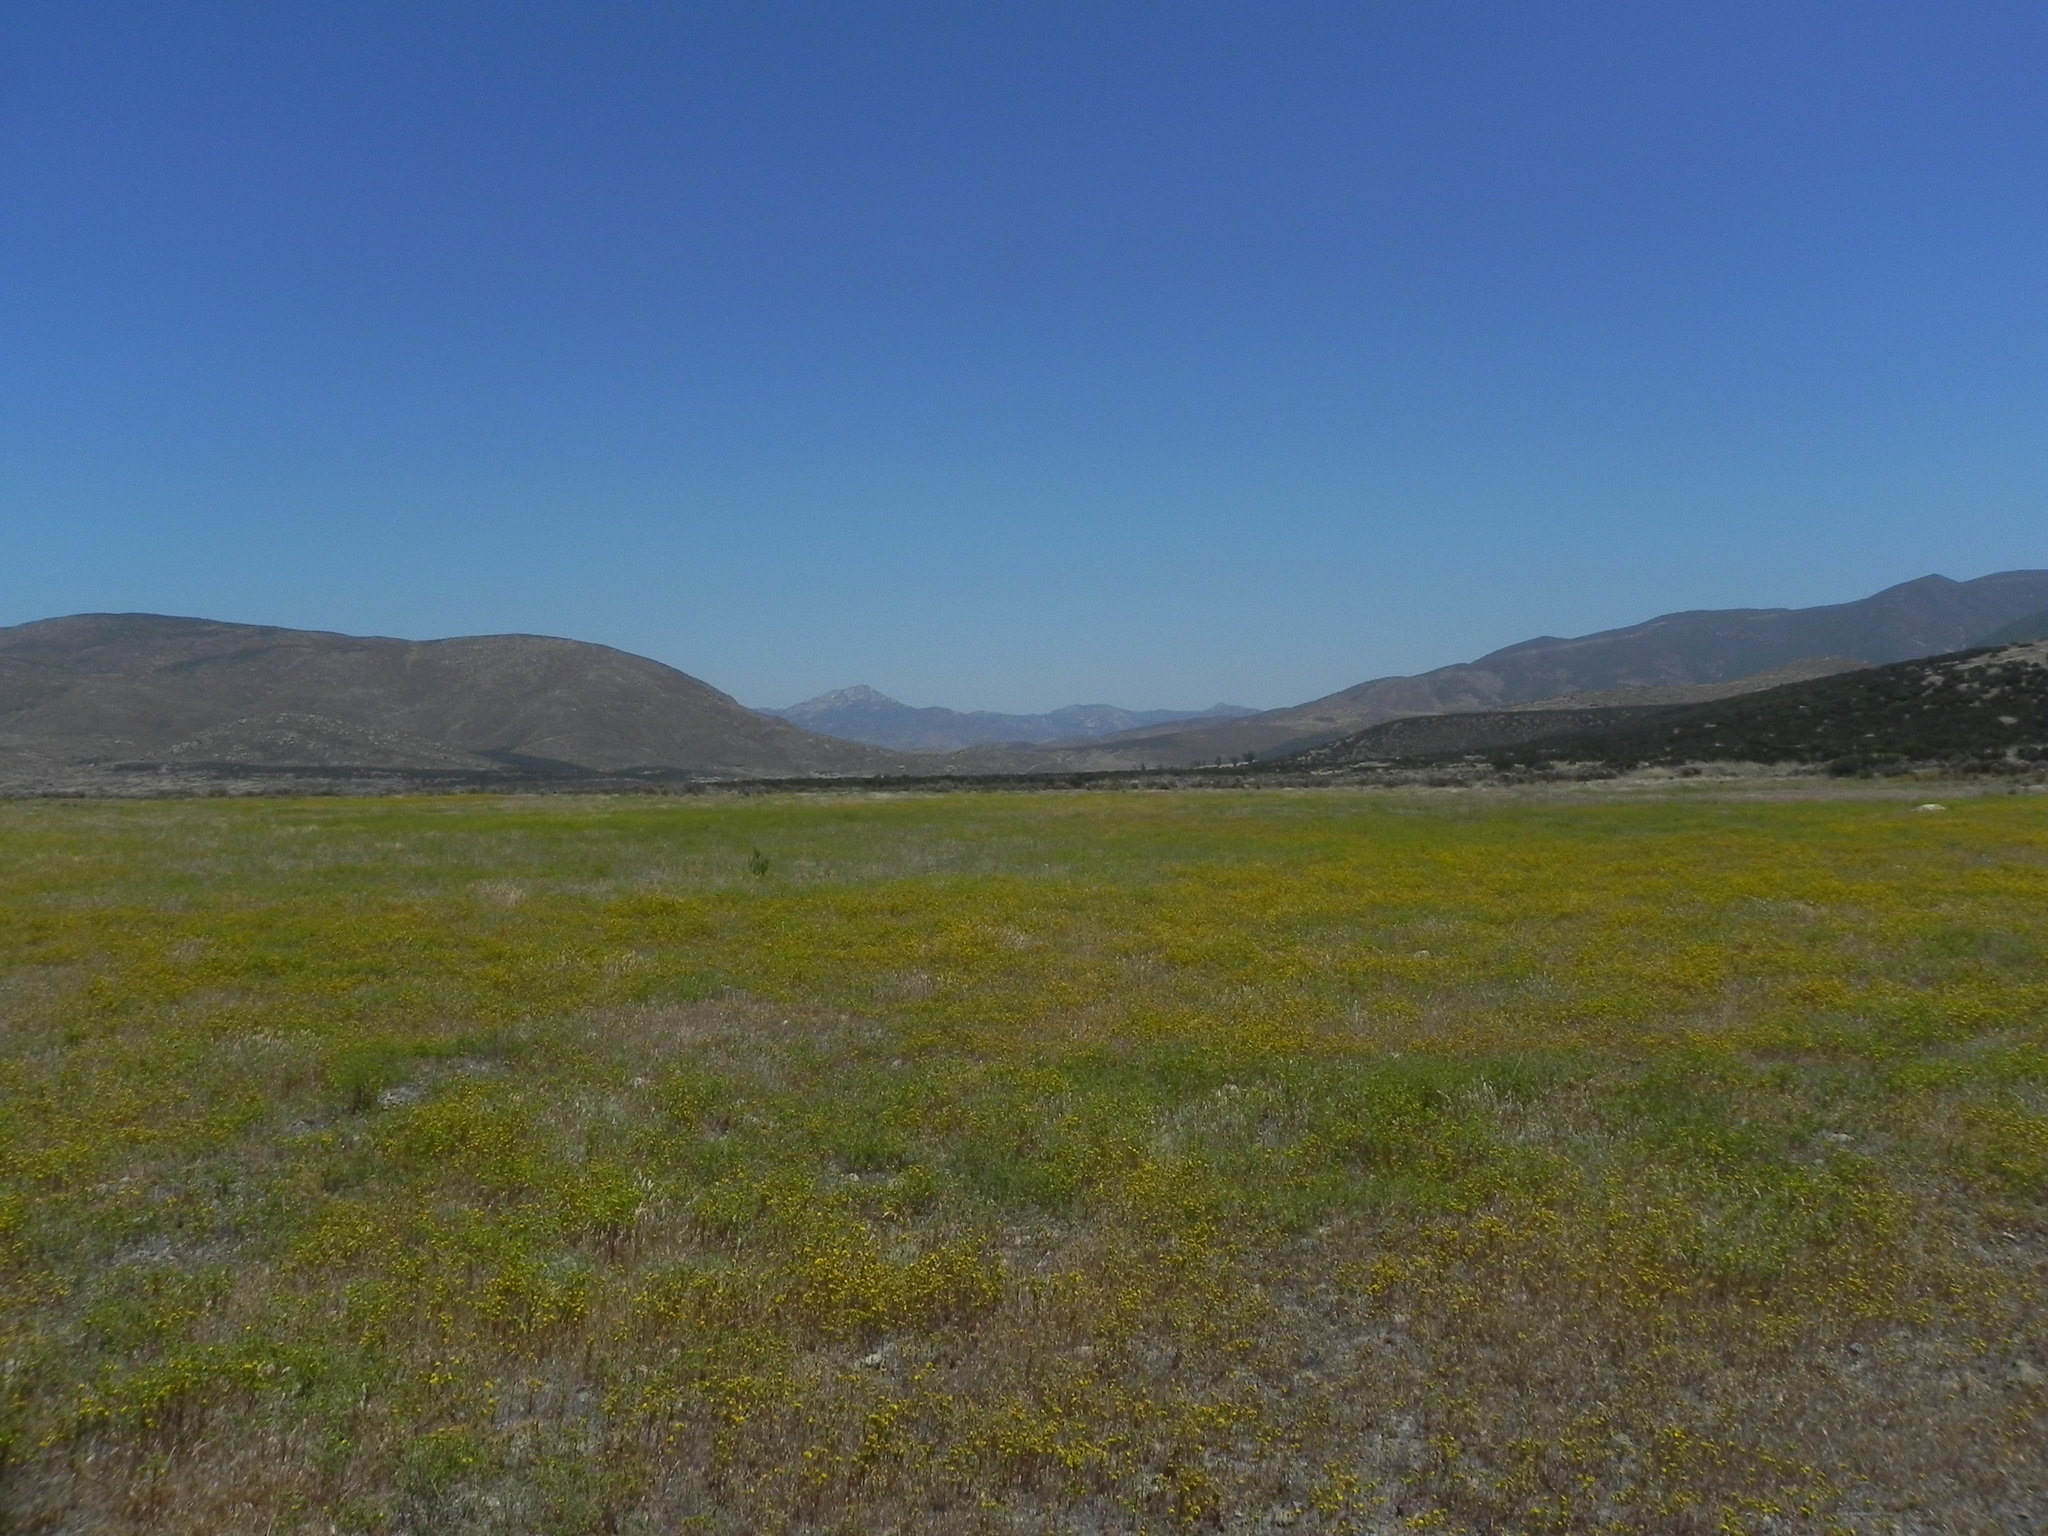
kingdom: Plantae
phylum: Tracheophyta
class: Magnoliopsida
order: Asterales
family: Asteraceae
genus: Deinandra
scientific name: Deinandra fasciculata
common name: Clustered tarweed
